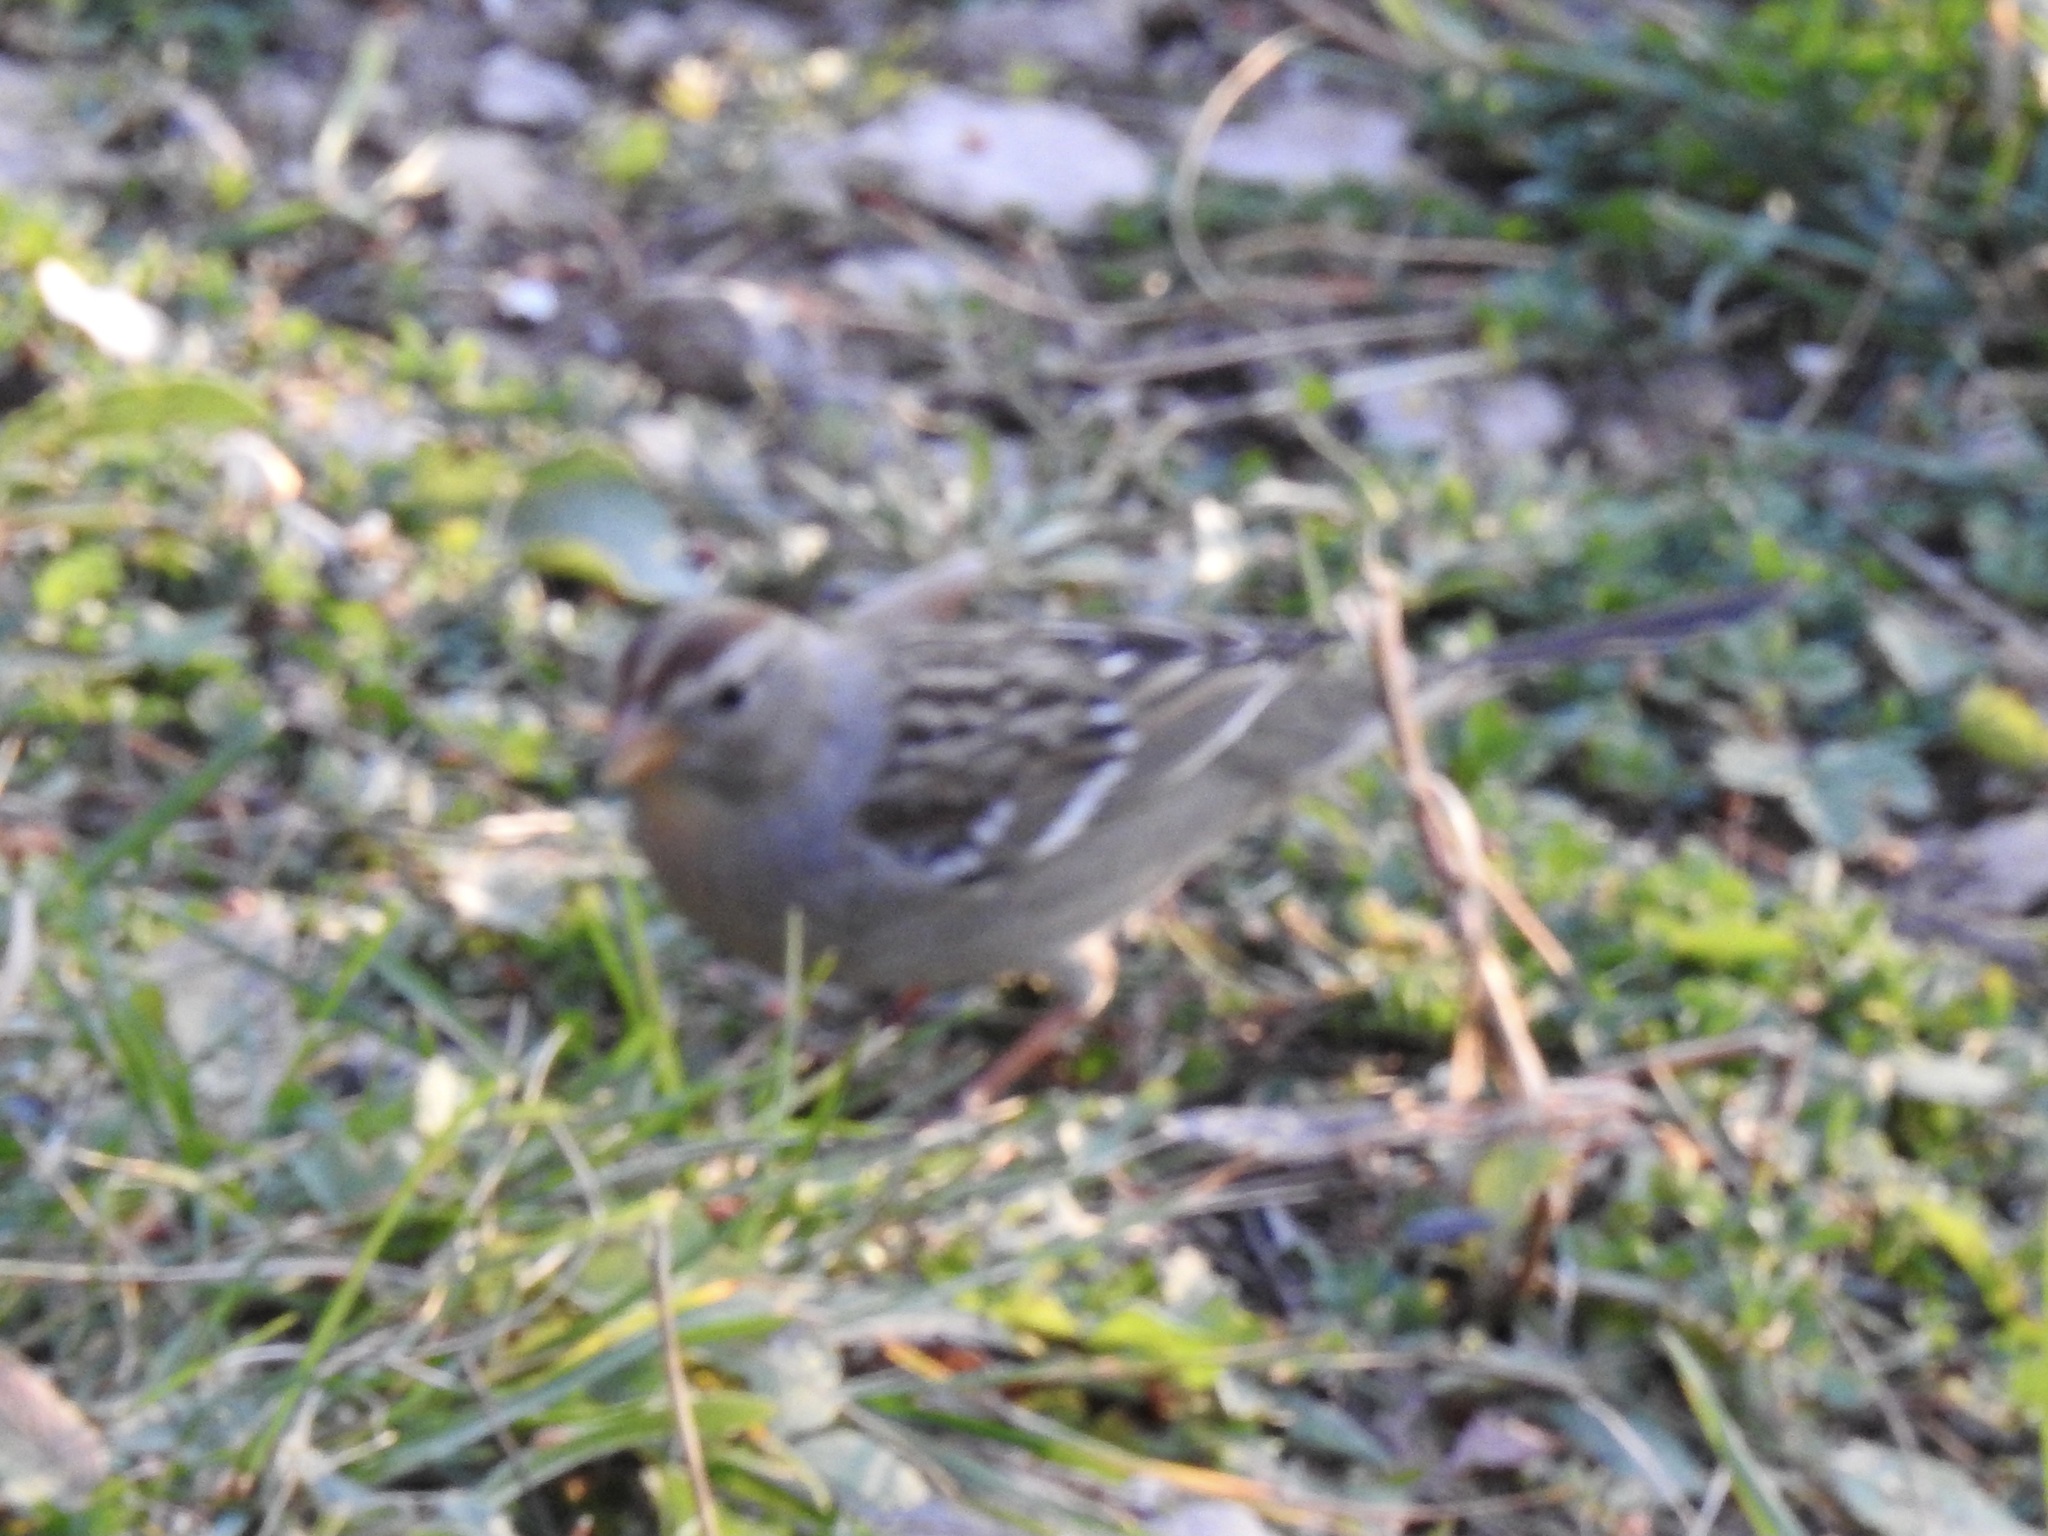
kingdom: Animalia
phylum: Chordata
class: Aves
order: Passeriformes
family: Passerellidae
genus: Zonotrichia
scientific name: Zonotrichia leucophrys
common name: White-crowned sparrow
